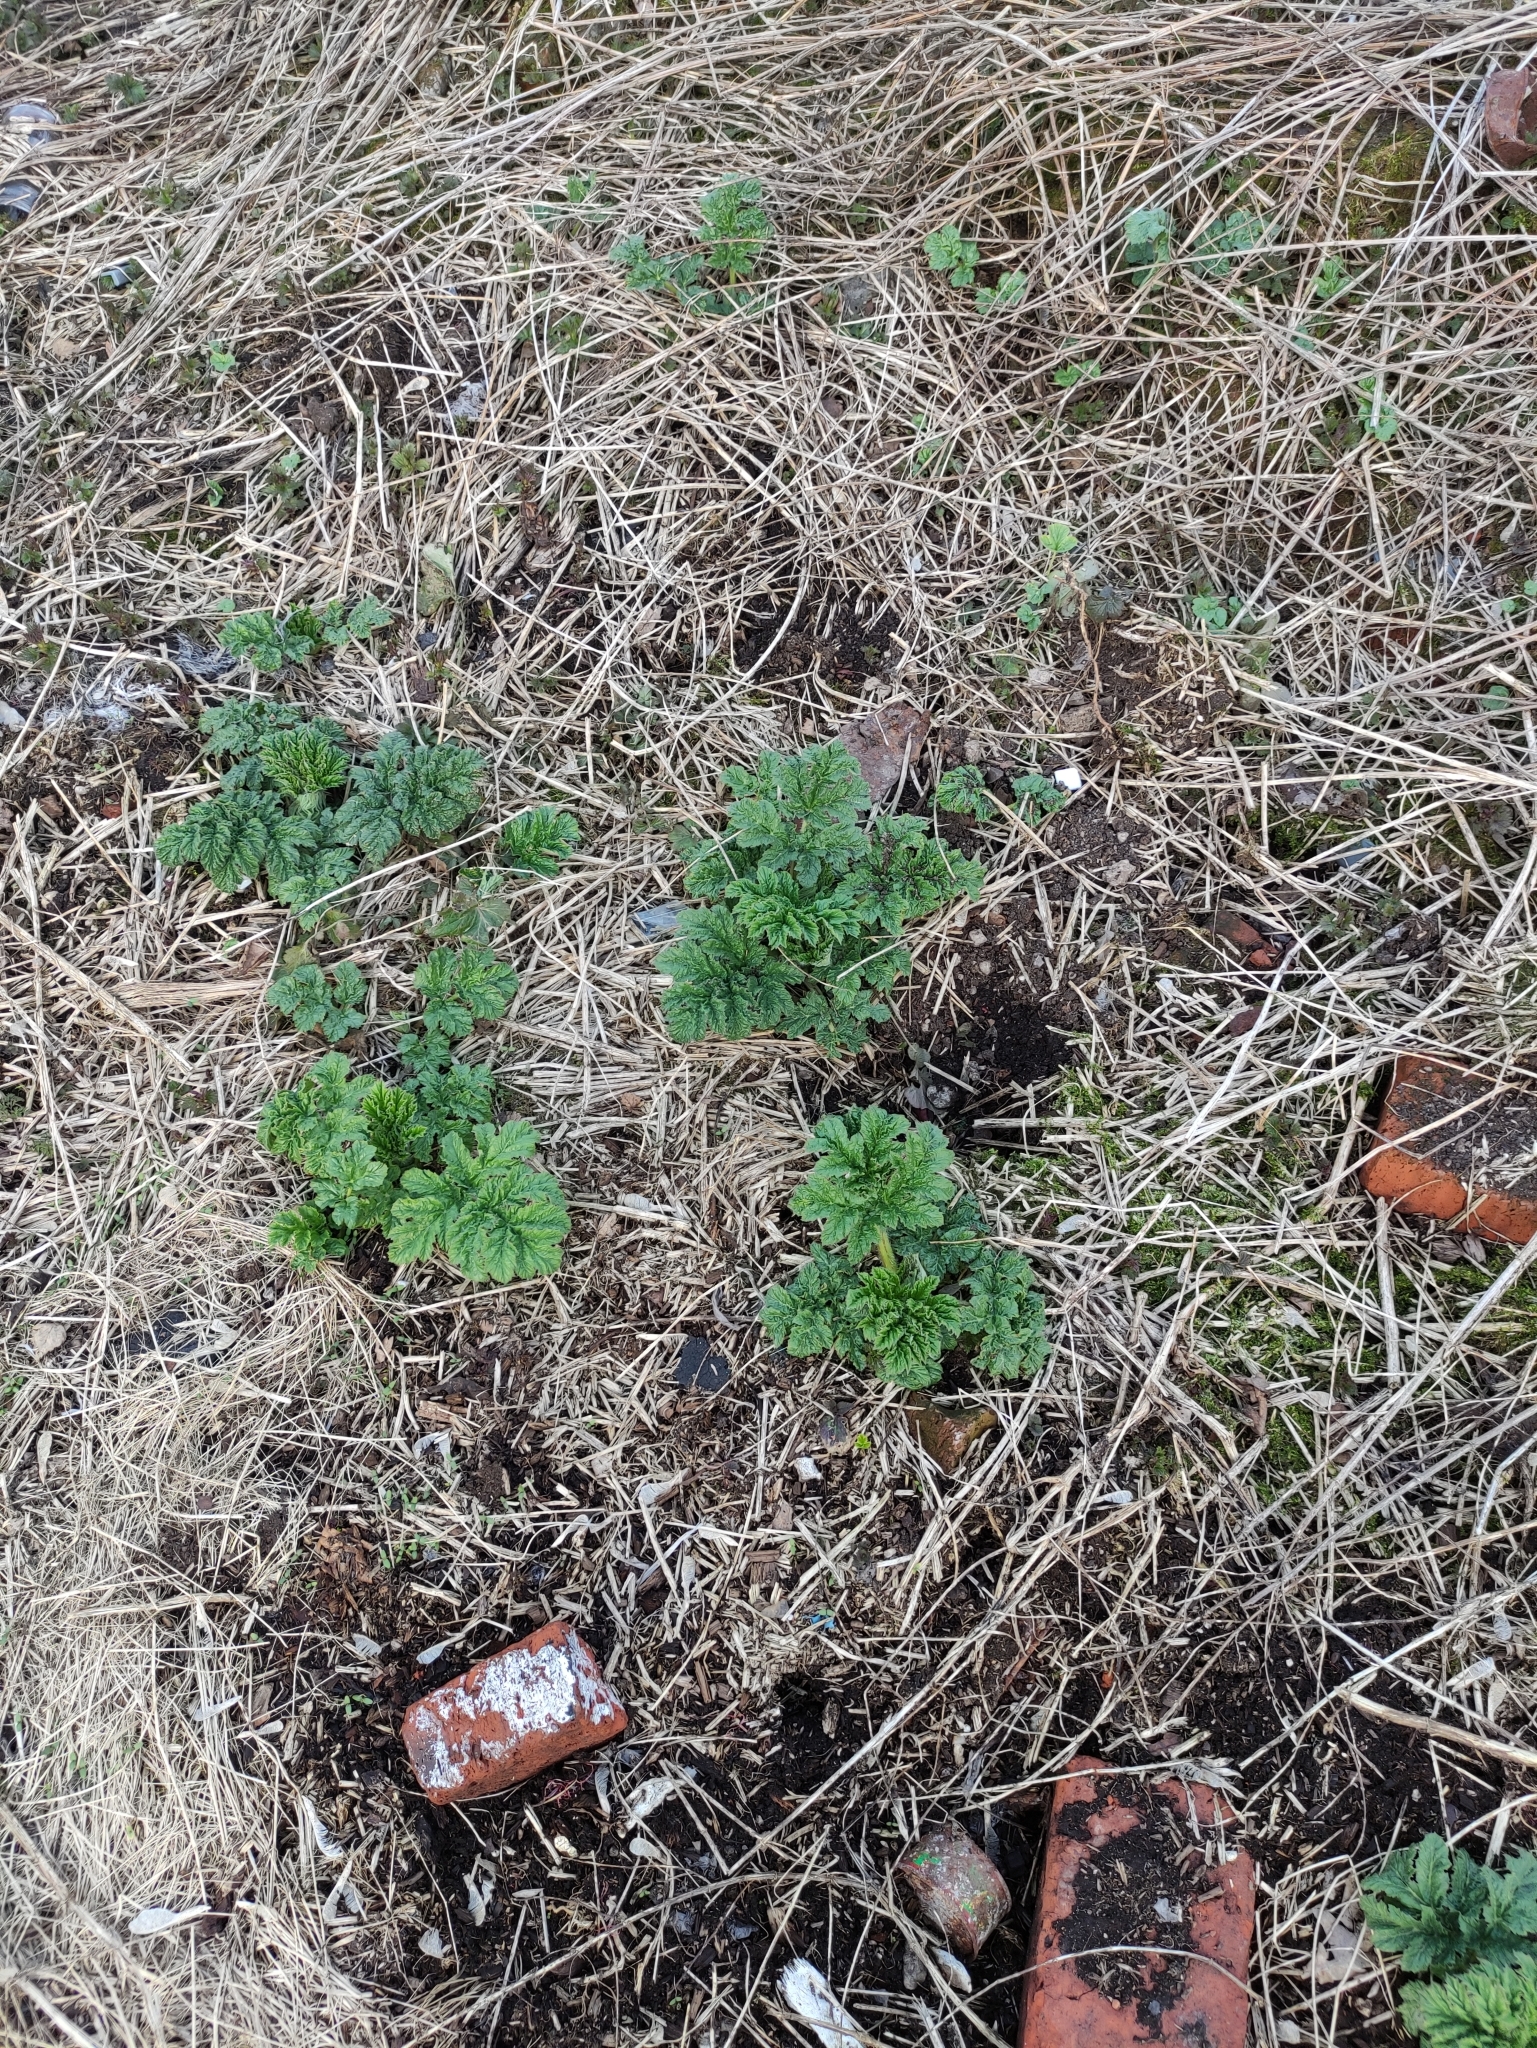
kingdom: Plantae
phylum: Tracheophyta
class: Magnoliopsida
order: Apiales
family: Apiaceae
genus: Heracleum
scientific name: Heracleum sosnowskyi
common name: Sosnowsky's hogweed
